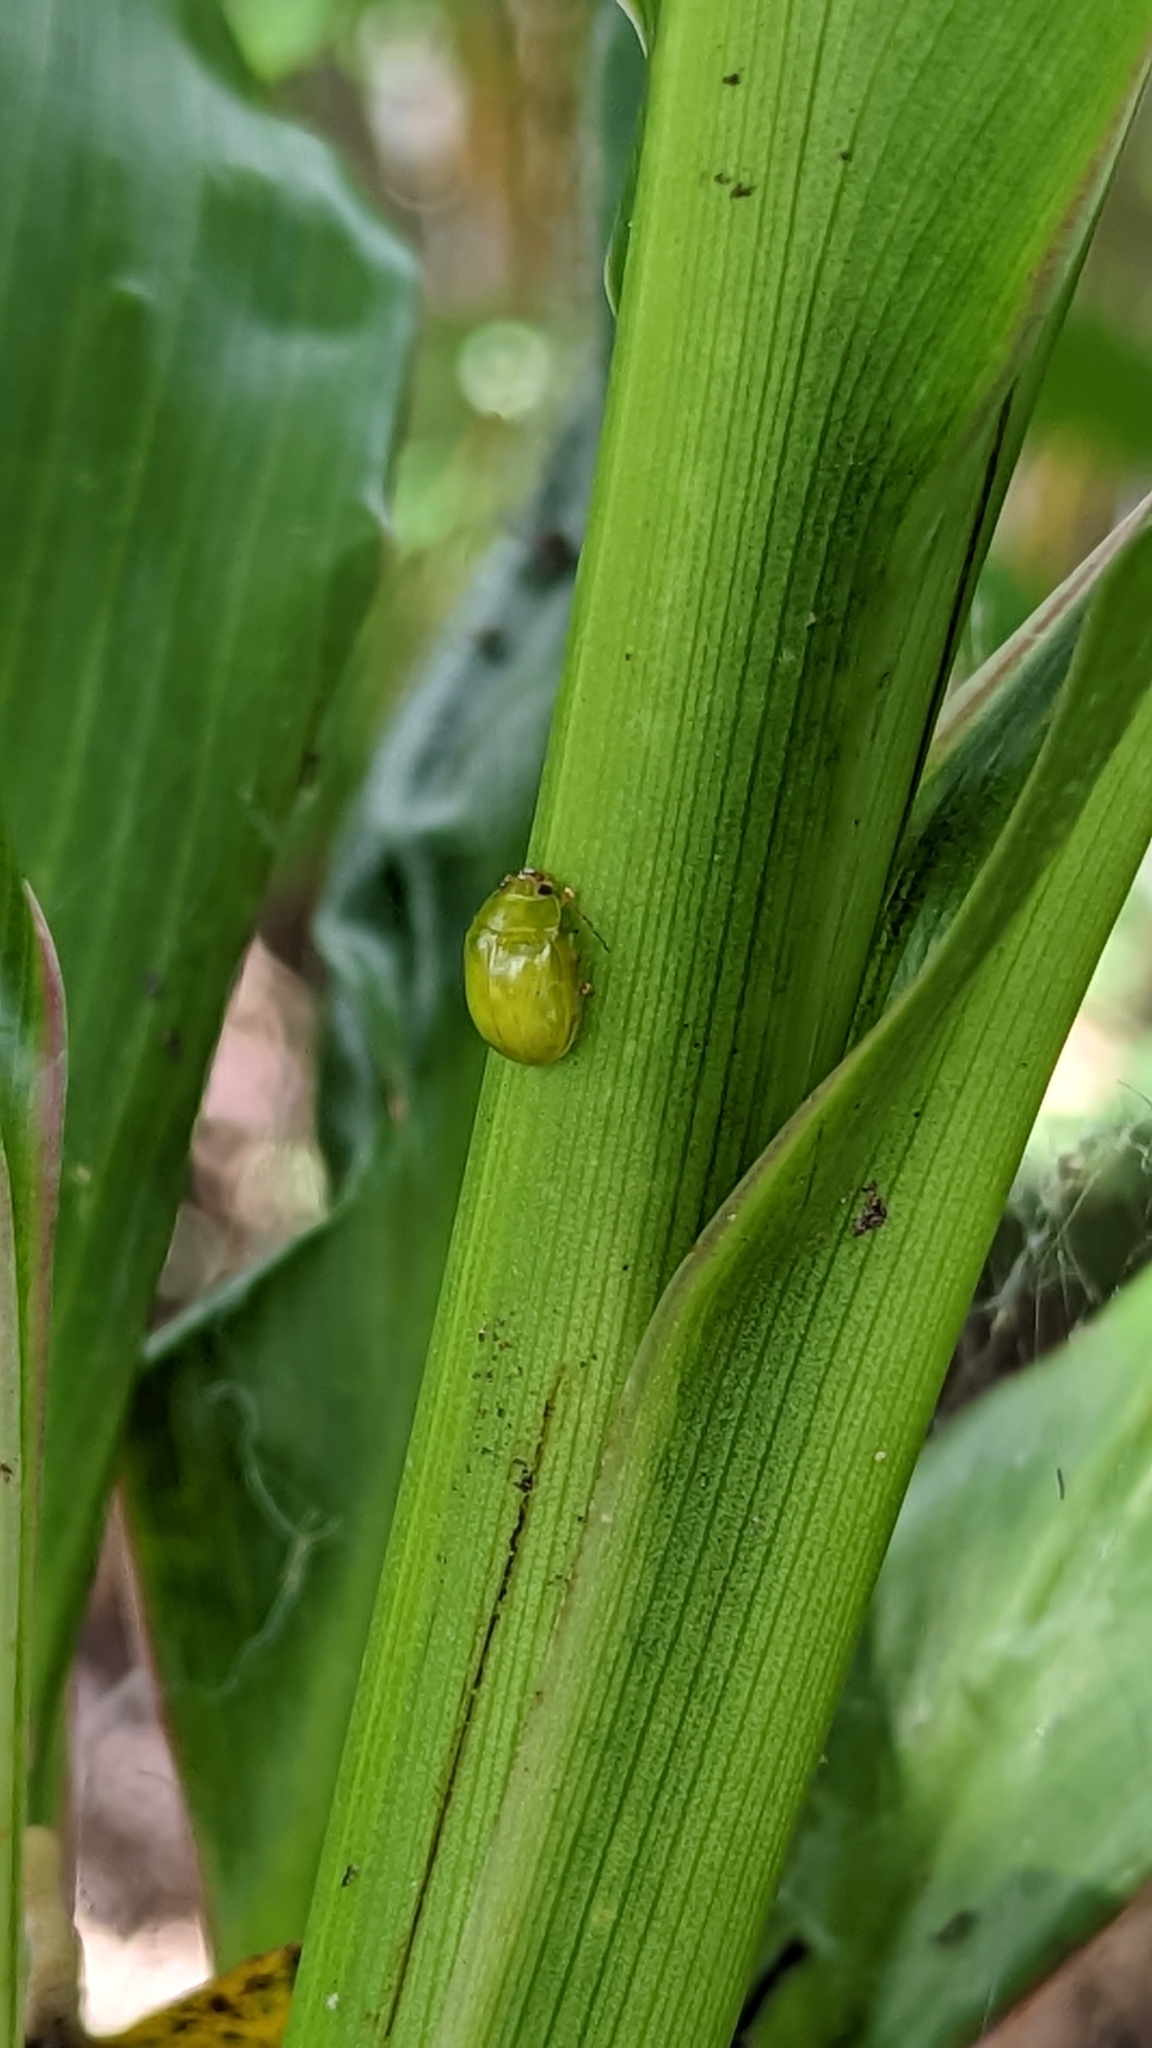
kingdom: Animalia
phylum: Arthropoda
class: Insecta
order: Coleoptera
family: Chrysomelidae
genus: Calomela
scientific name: Calomela
